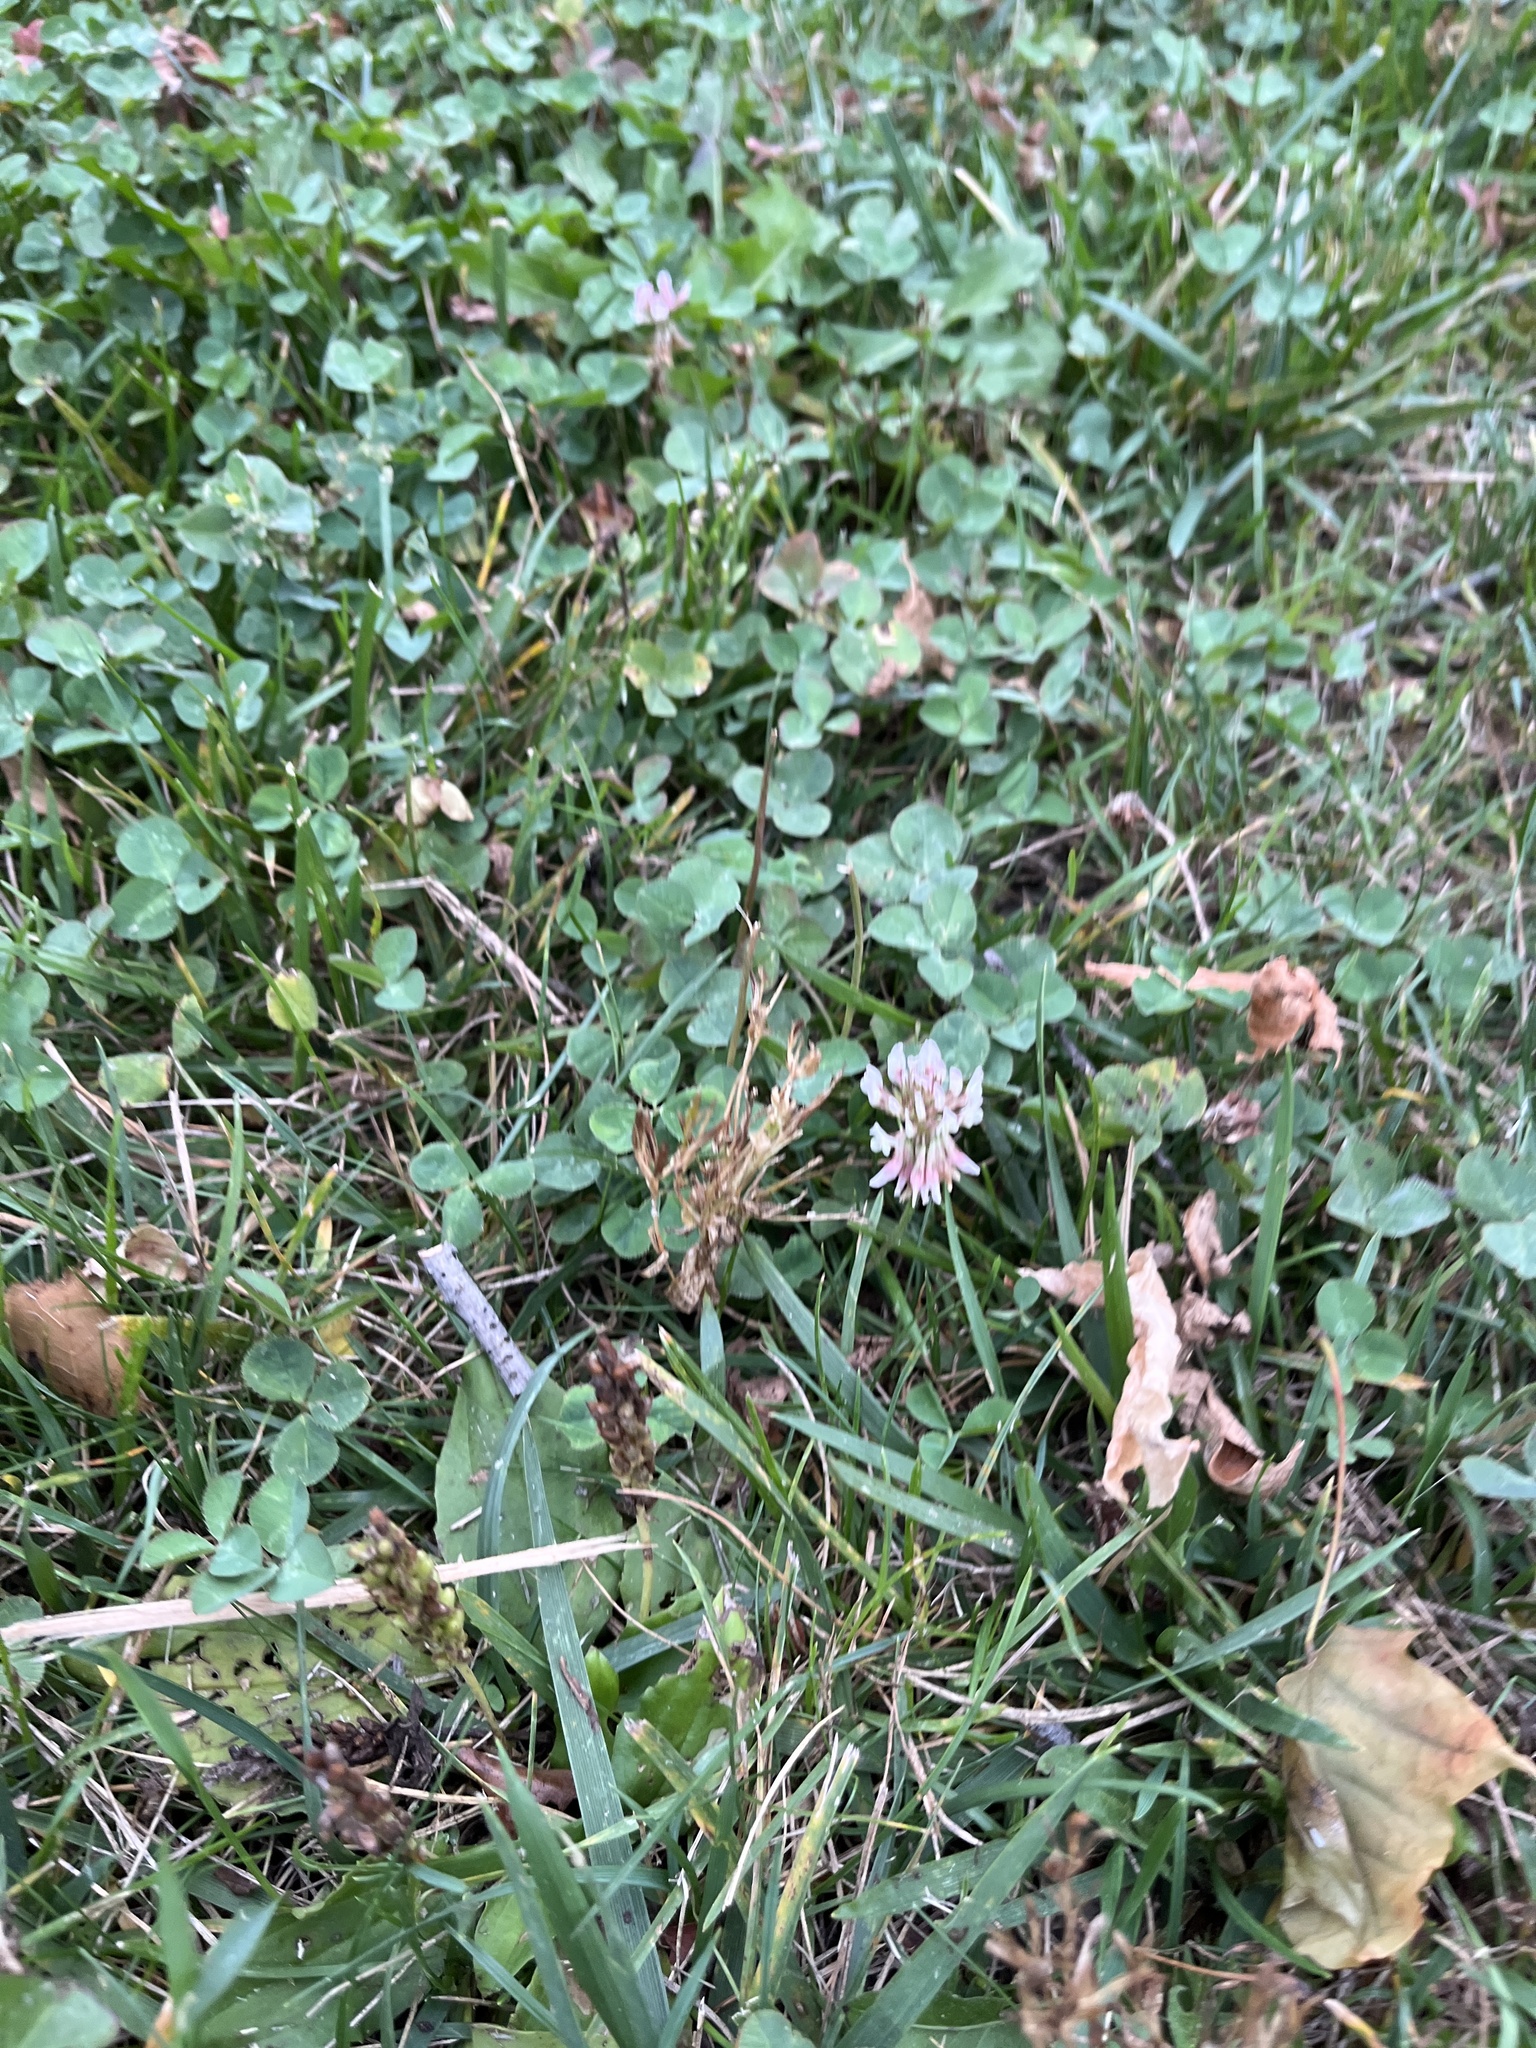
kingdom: Plantae
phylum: Tracheophyta
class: Magnoliopsida
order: Fabales
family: Fabaceae
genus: Trifolium
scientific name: Trifolium repens
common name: White clover
